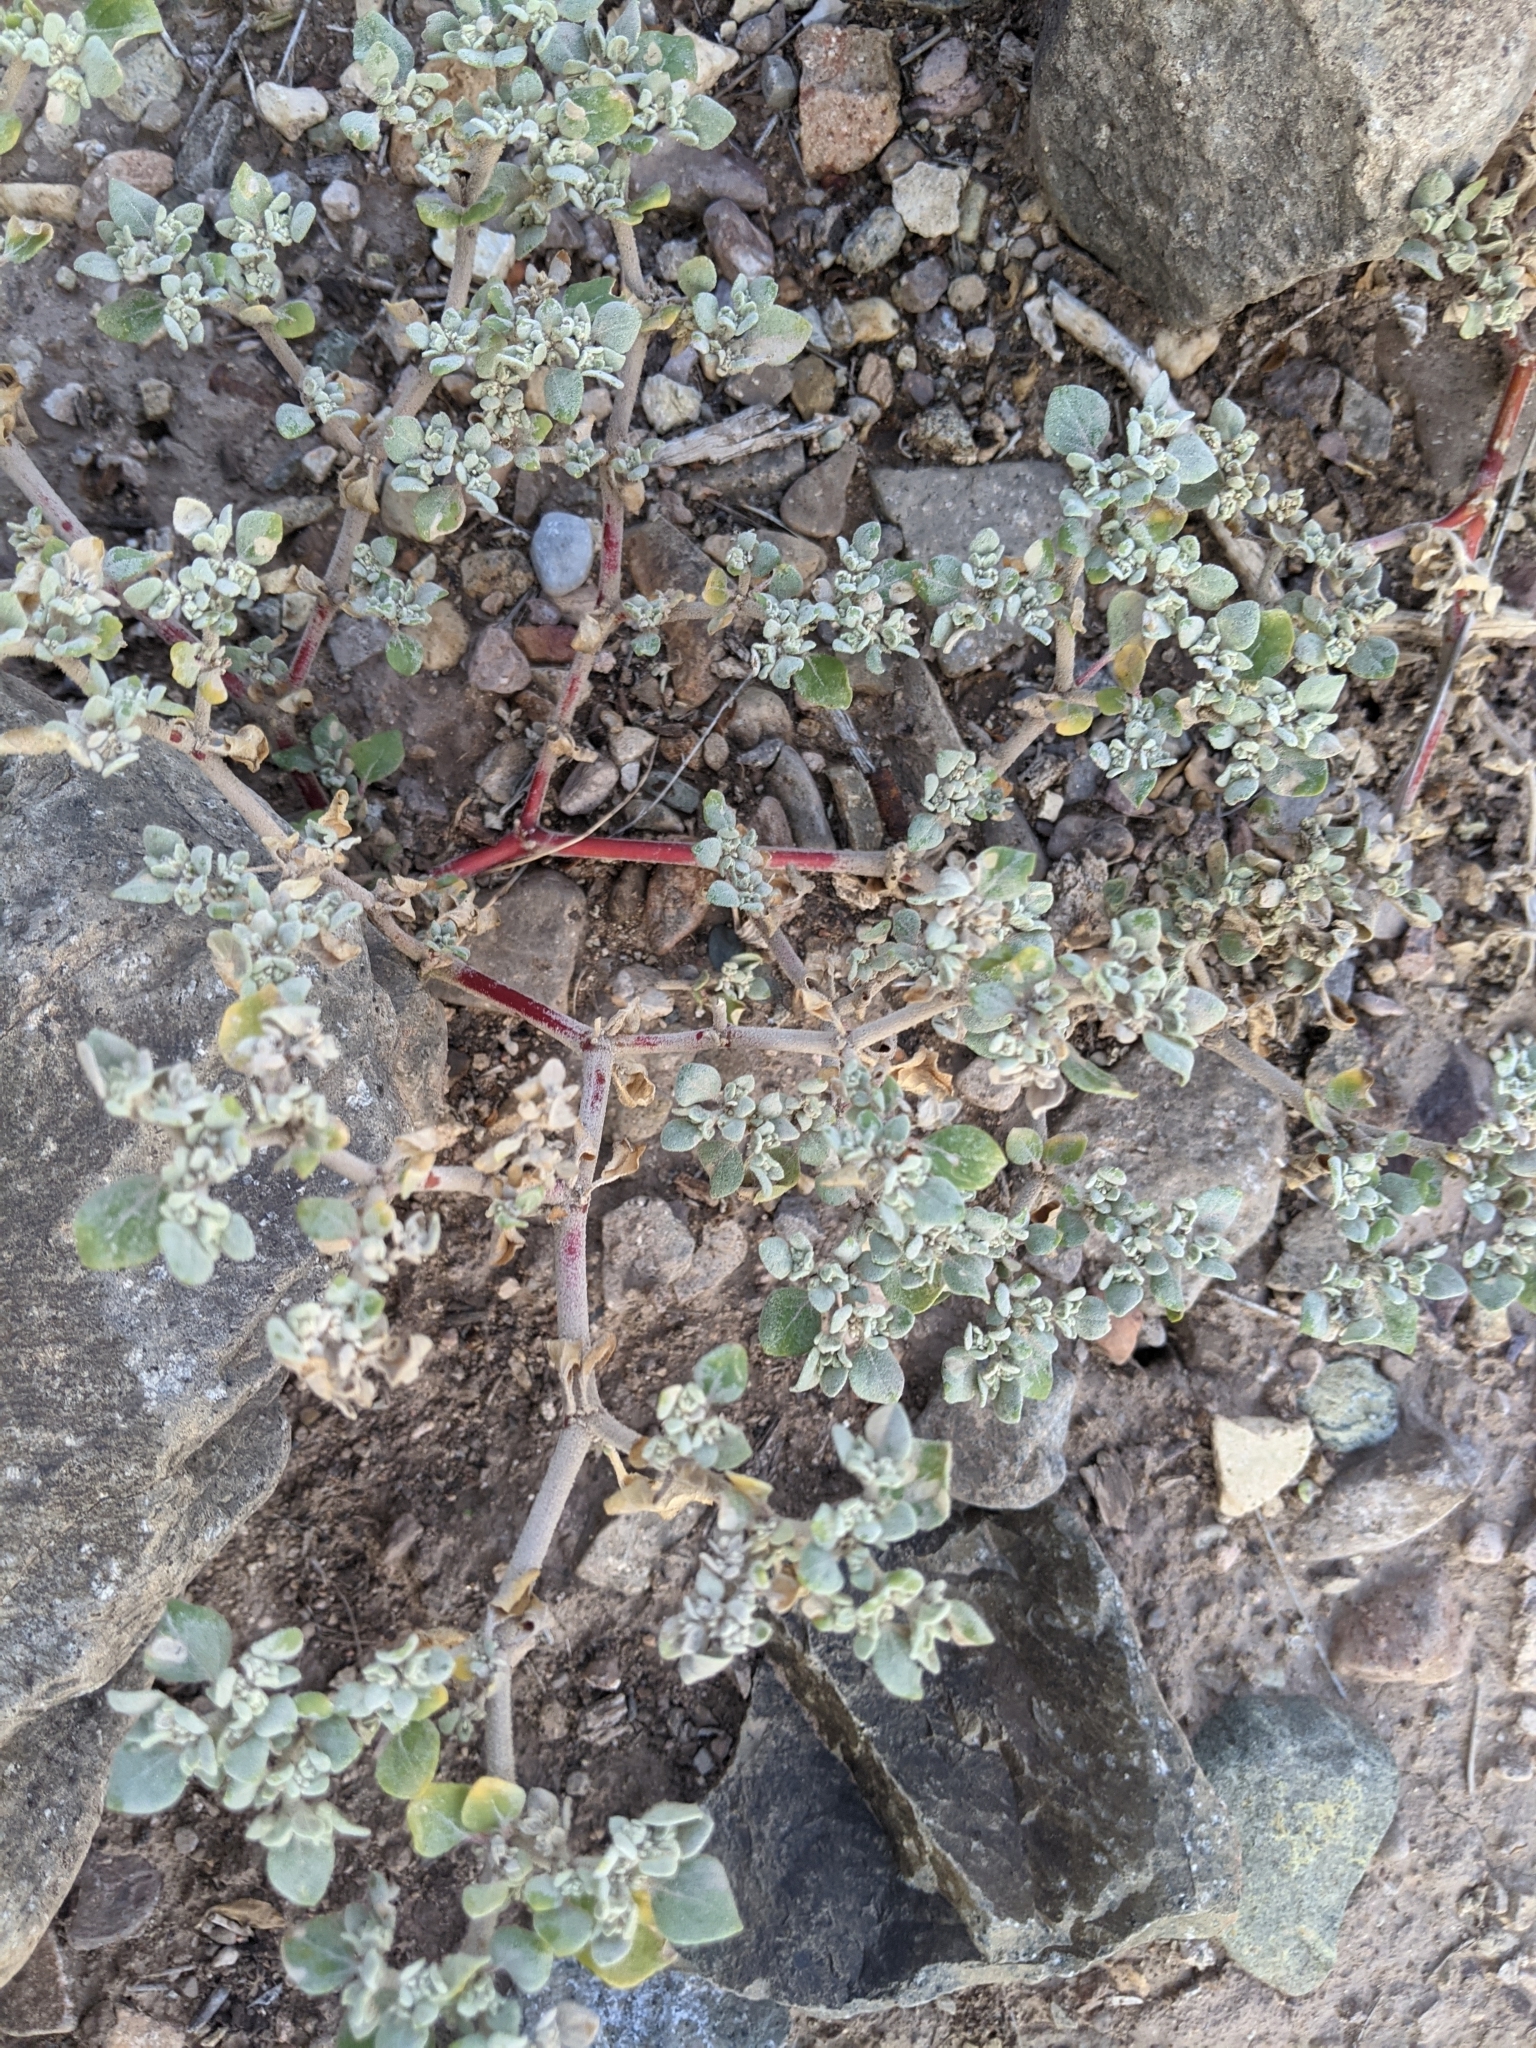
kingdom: Plantae
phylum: Tracheophyta
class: Magnoliopsida
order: Caryophyllales
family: Amaranthaceae
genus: Tidestromia
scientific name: Tidestromia lanuginosa
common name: Woolly tidestromia
